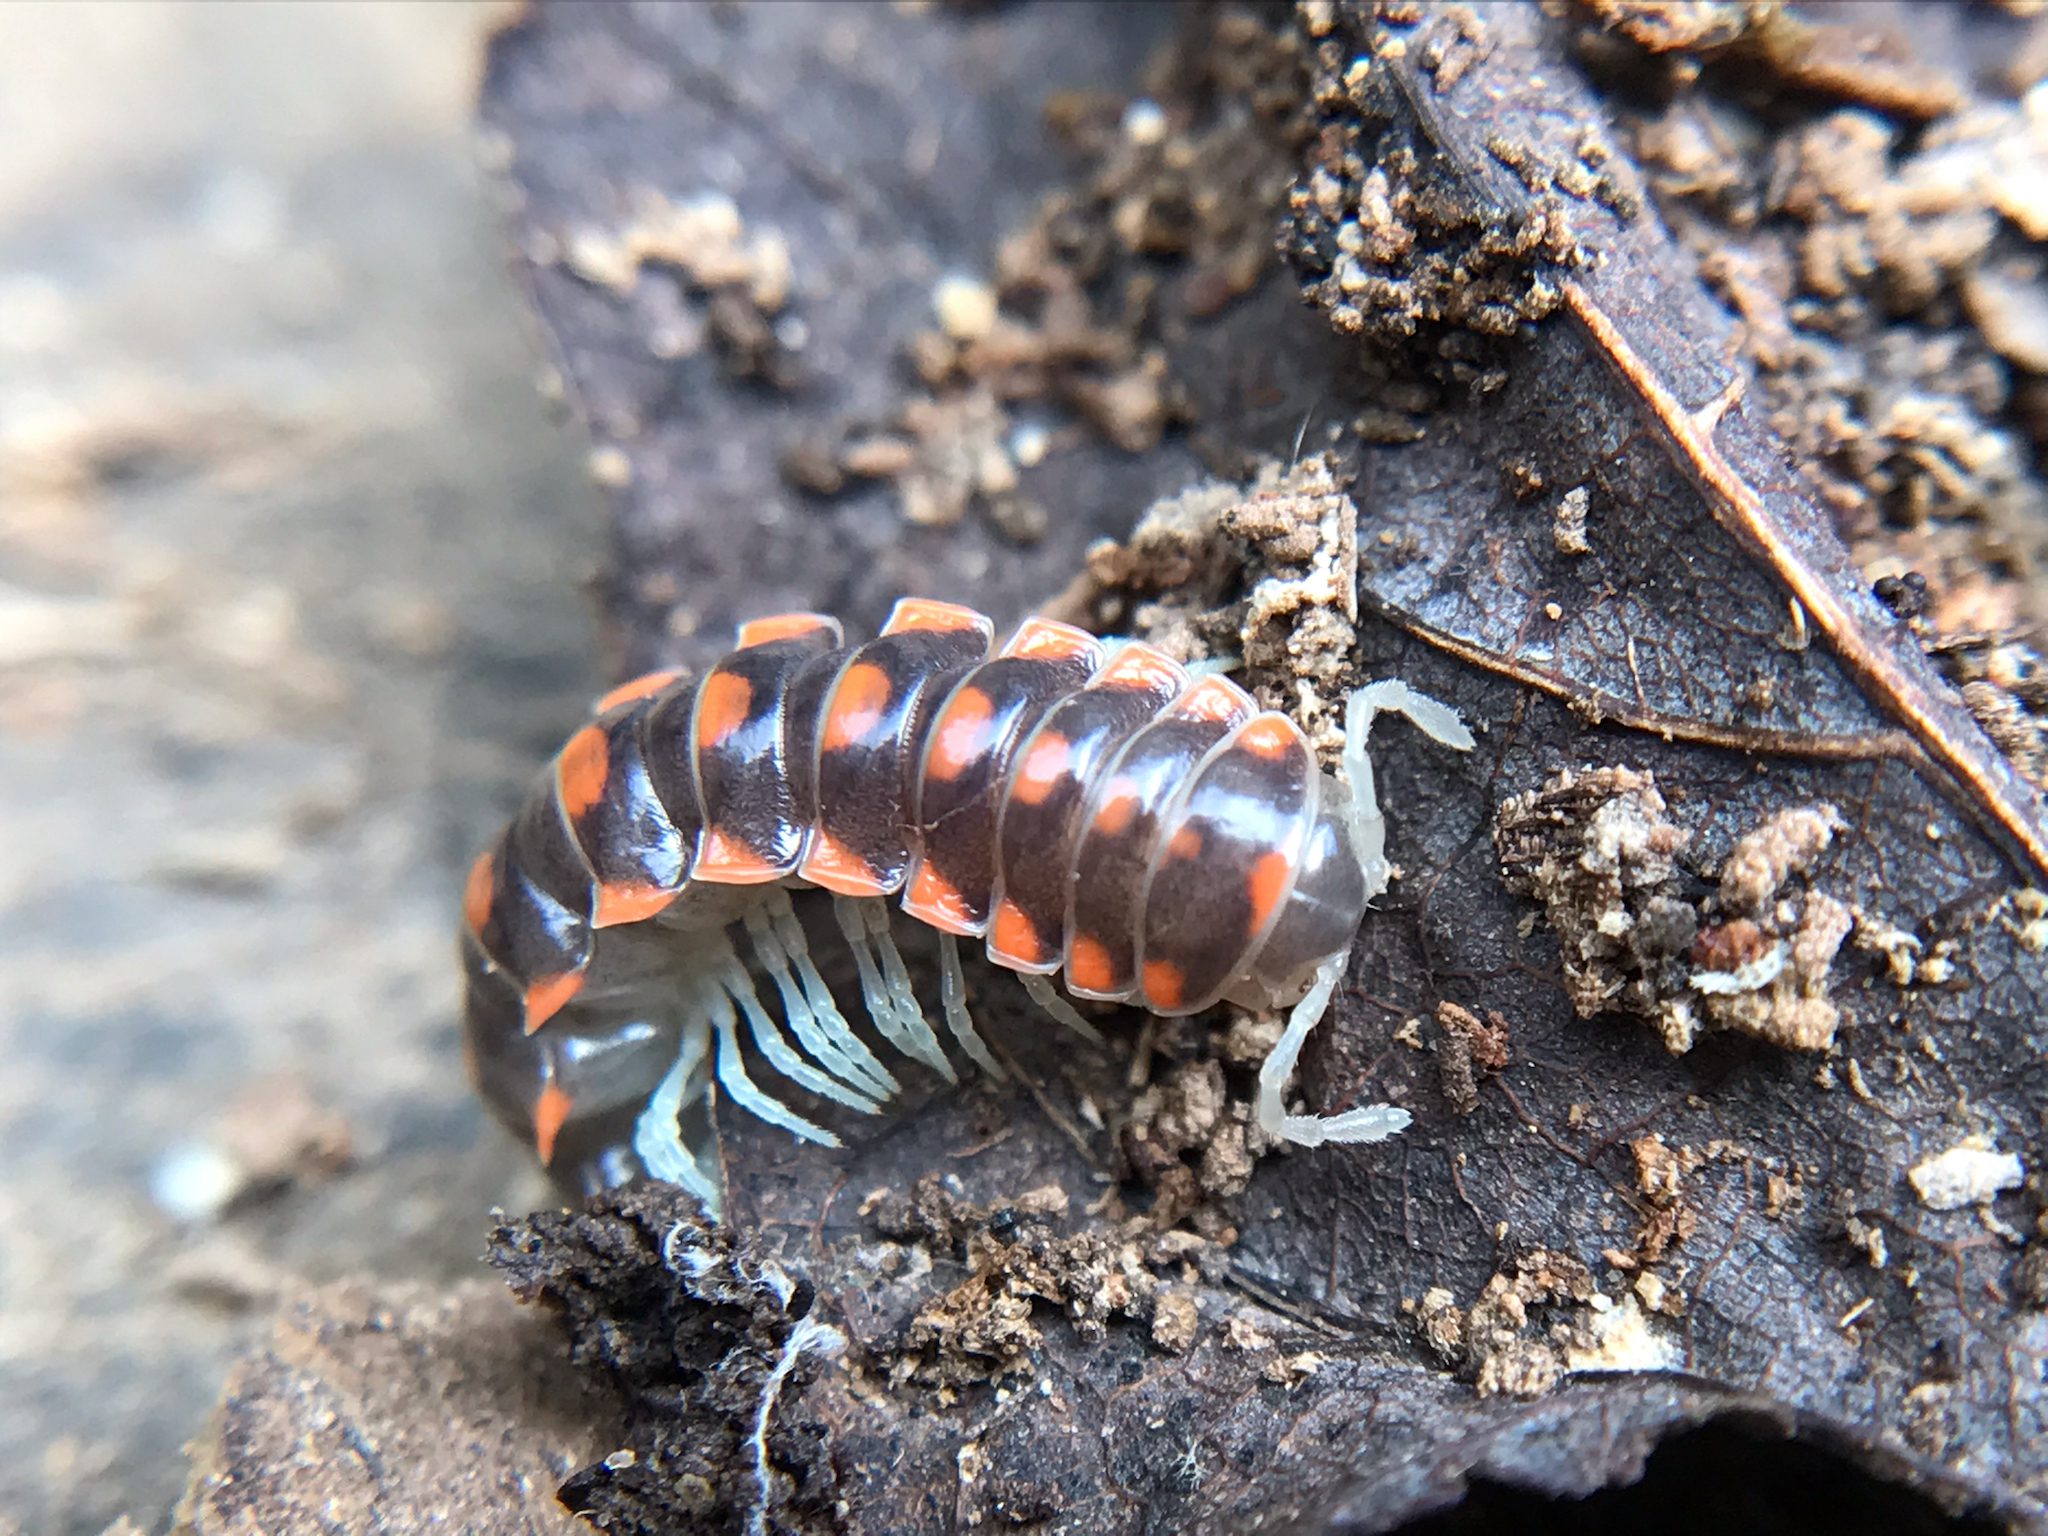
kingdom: Animalia
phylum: Arthropoda
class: Diplopoda
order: Polydesmida
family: Xystodesmidae
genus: Euryurus
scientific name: Euryurus leachii
